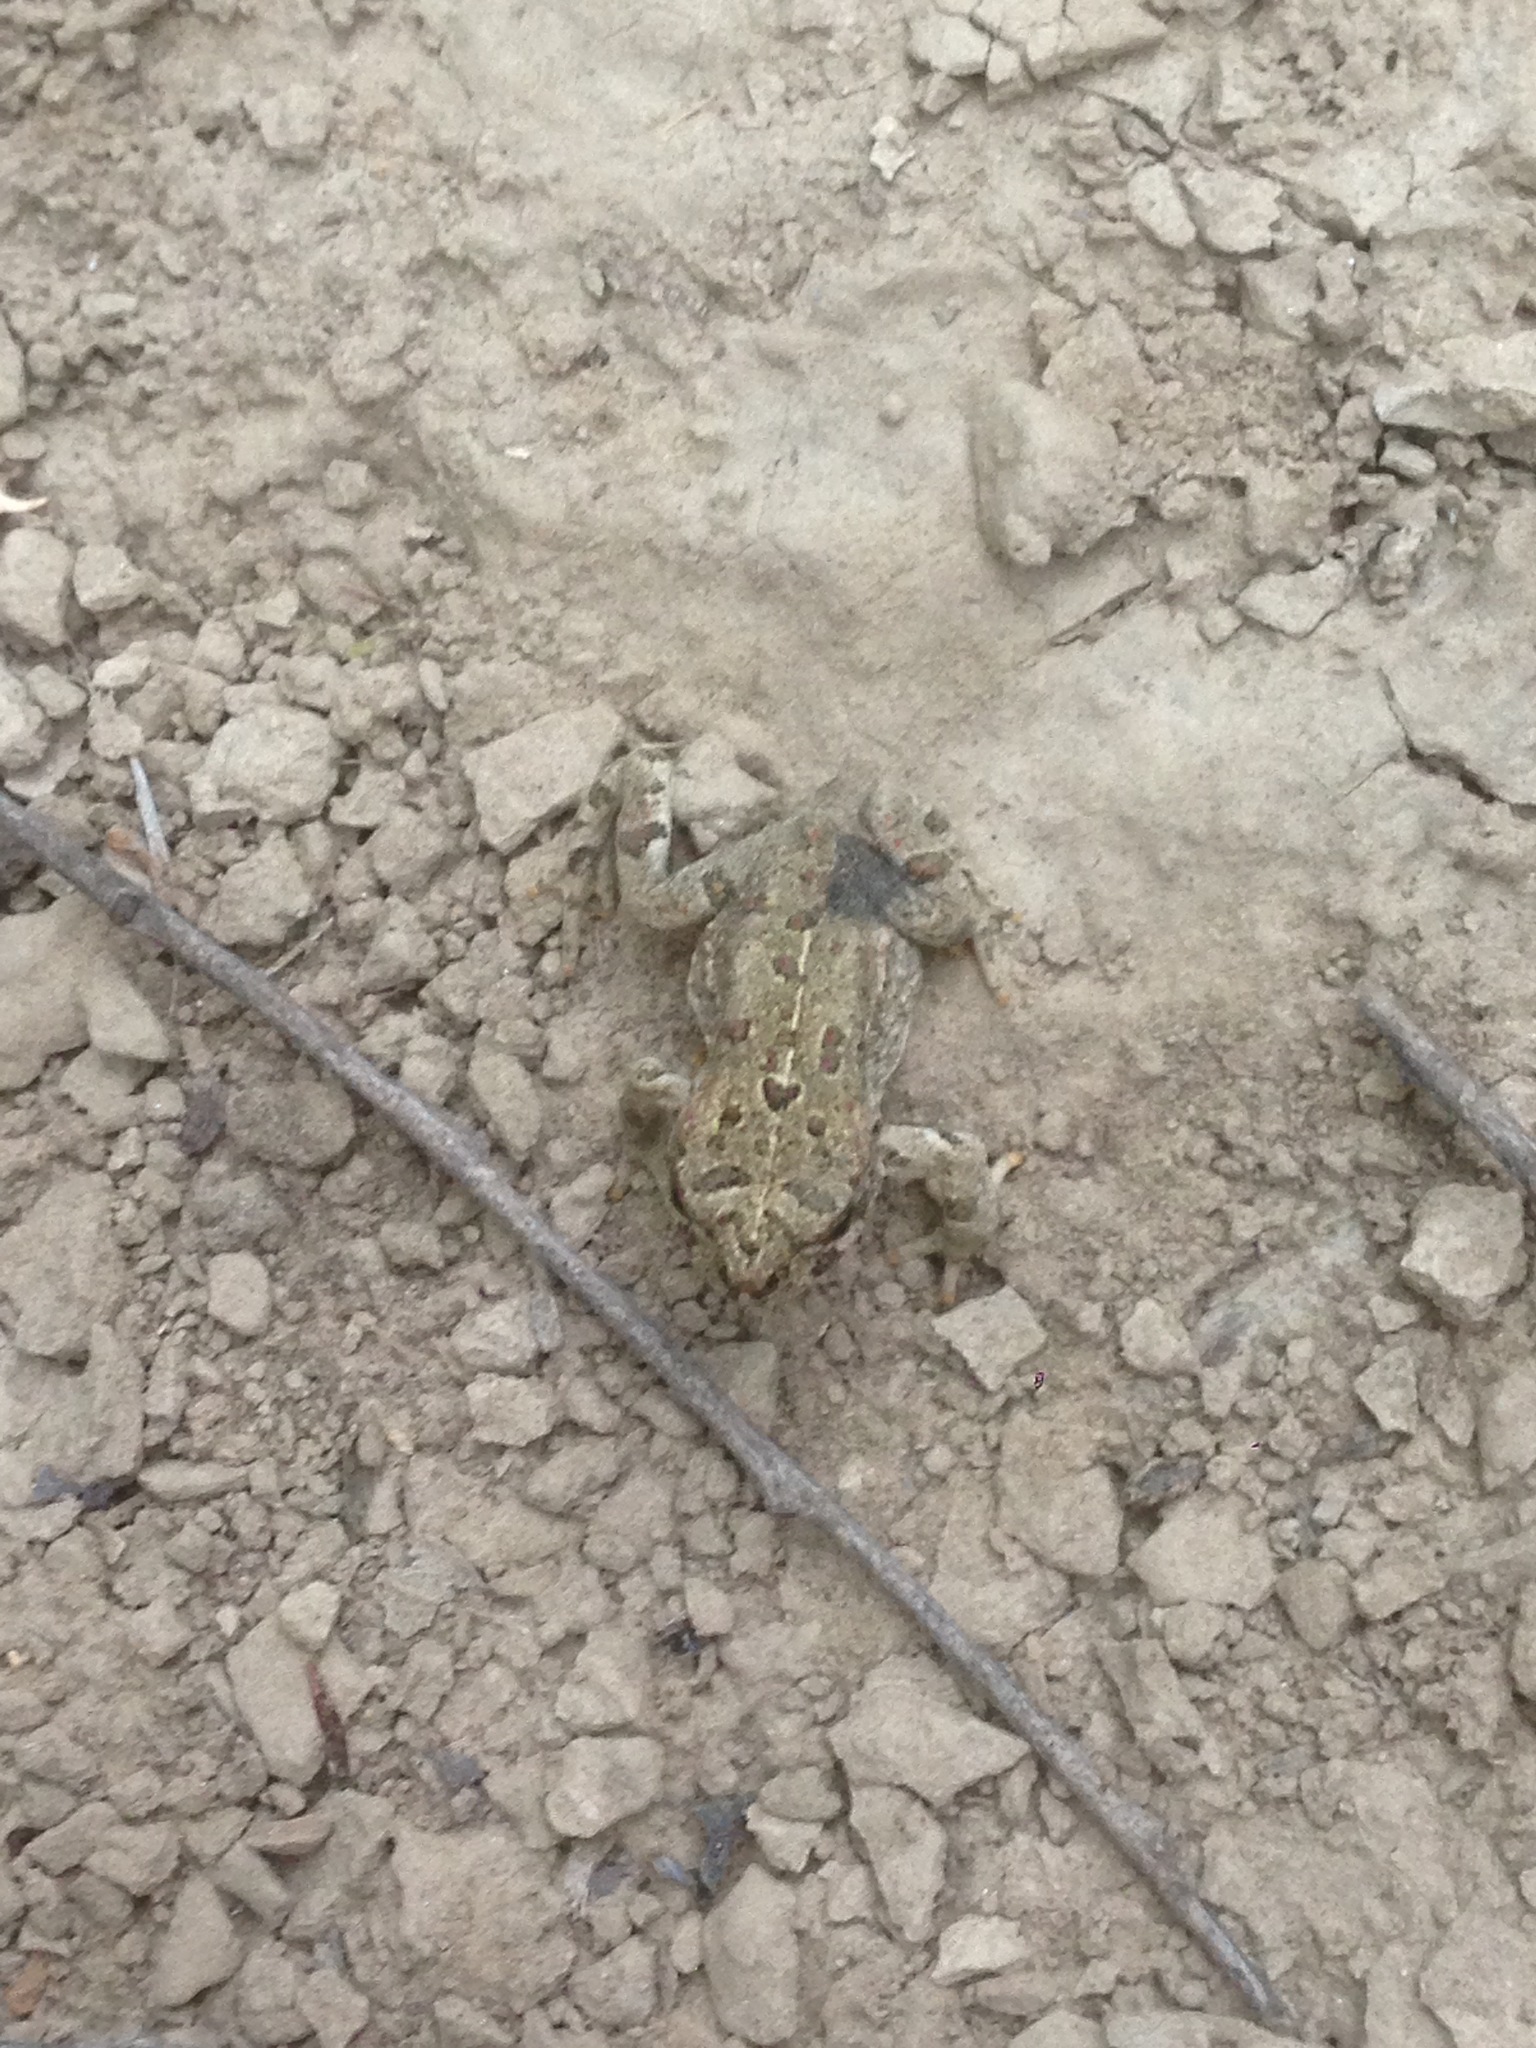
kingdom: Animalia
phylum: Chordata
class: Amphibia
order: Anura
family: Bufonidae
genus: Anaxyrus
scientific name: Anaxyrus boreas
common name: Western toad
